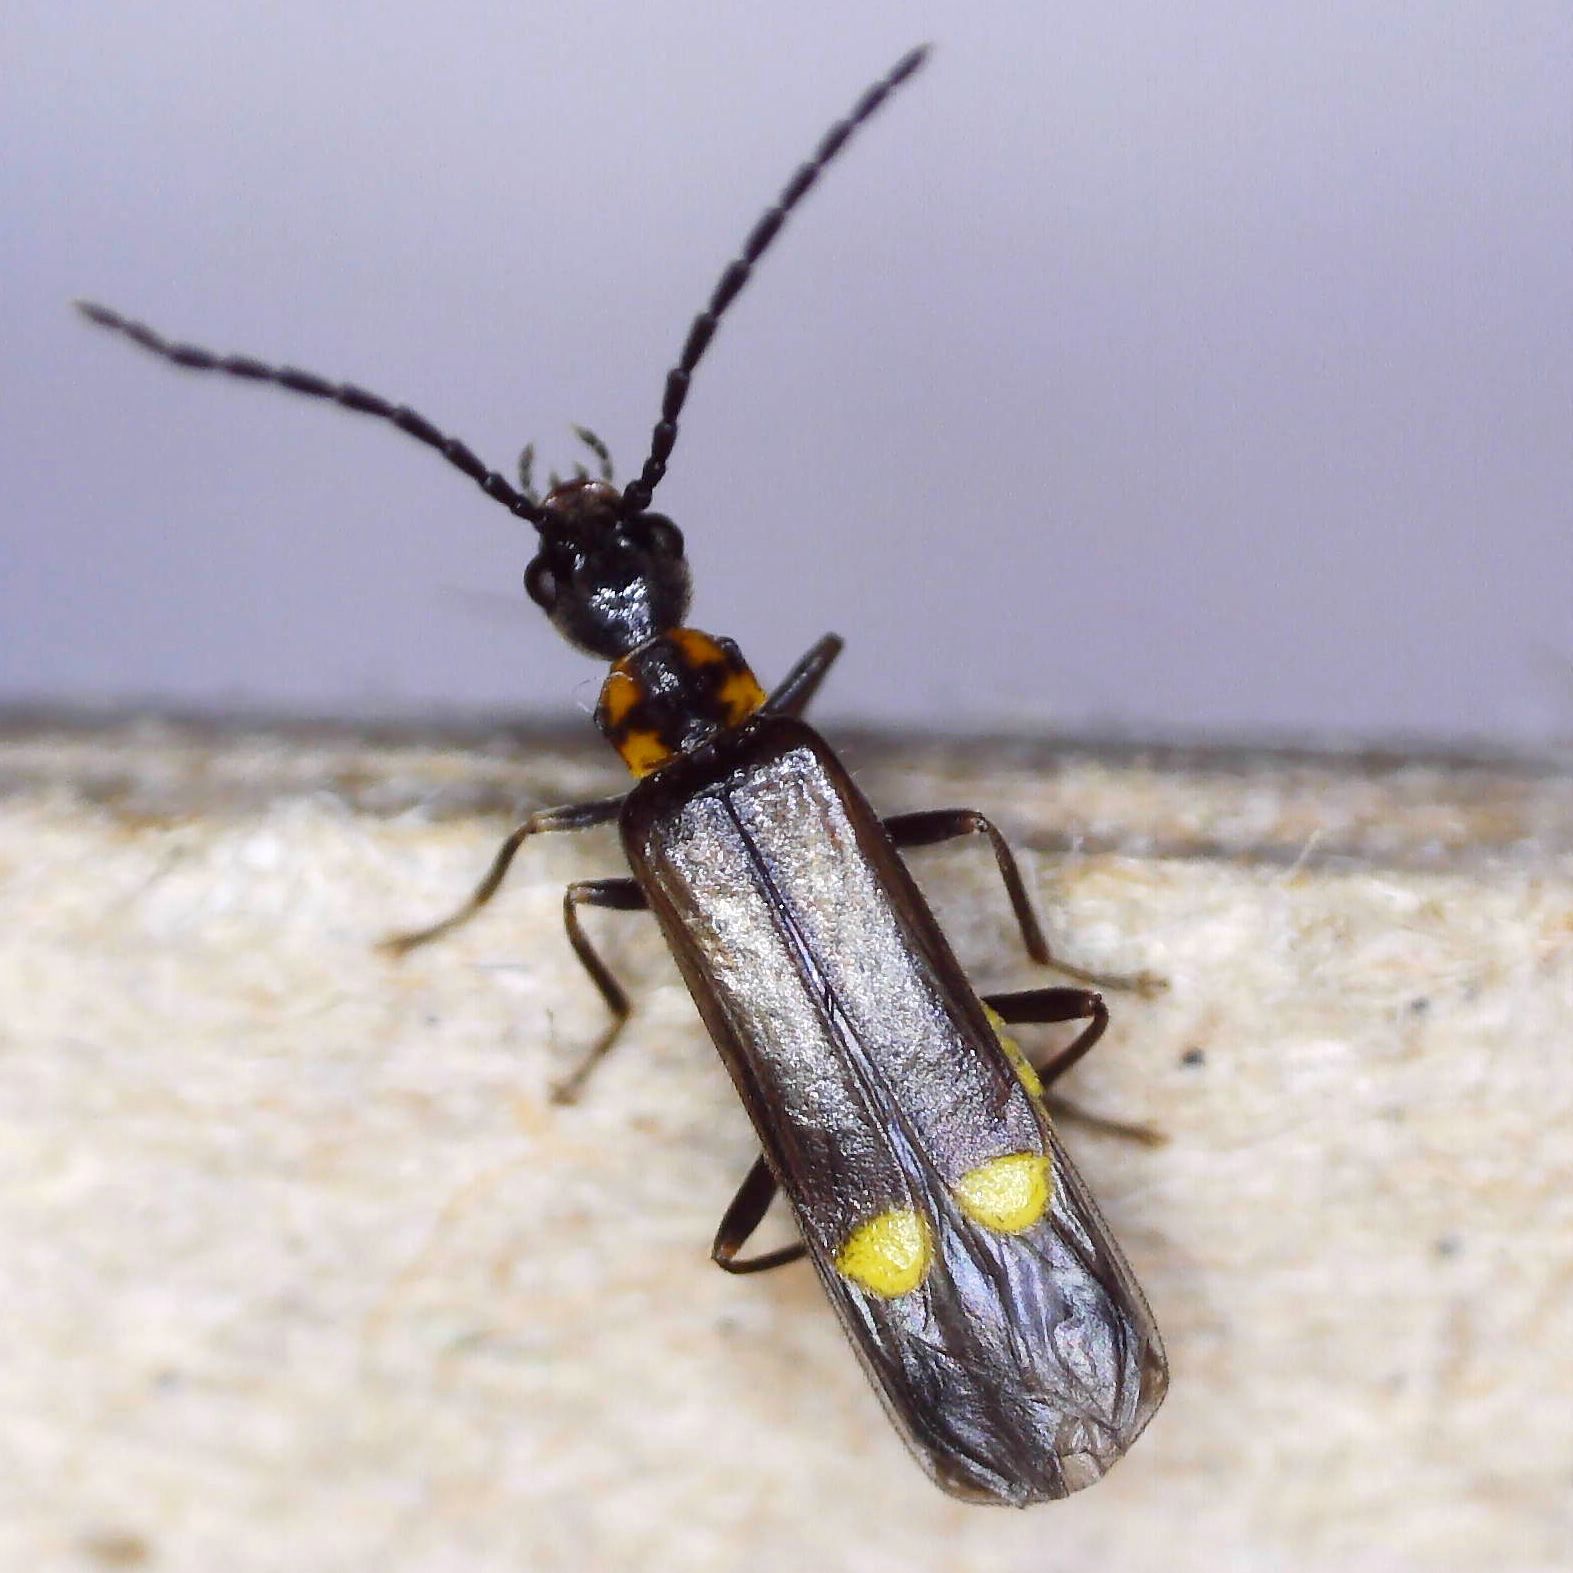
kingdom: Animalia
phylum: Arthropoda
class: Insecta
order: Coleoptera
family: Cantharidae
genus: Malthodes
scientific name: Malthodes marginatus
